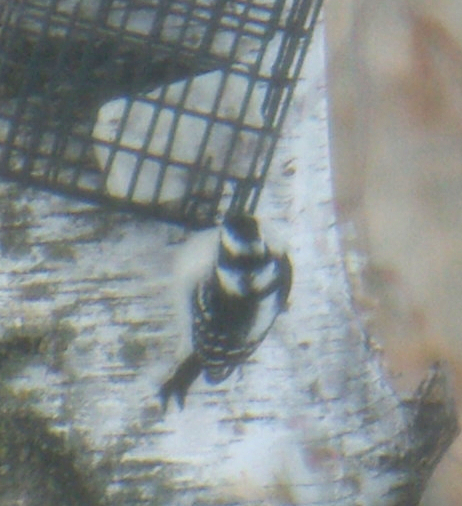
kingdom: Animalia
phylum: Chordata
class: Aves
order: Piciformes
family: Picidae
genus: Dryobates
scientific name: Dryobates pubescens
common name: Downy woodpecker
